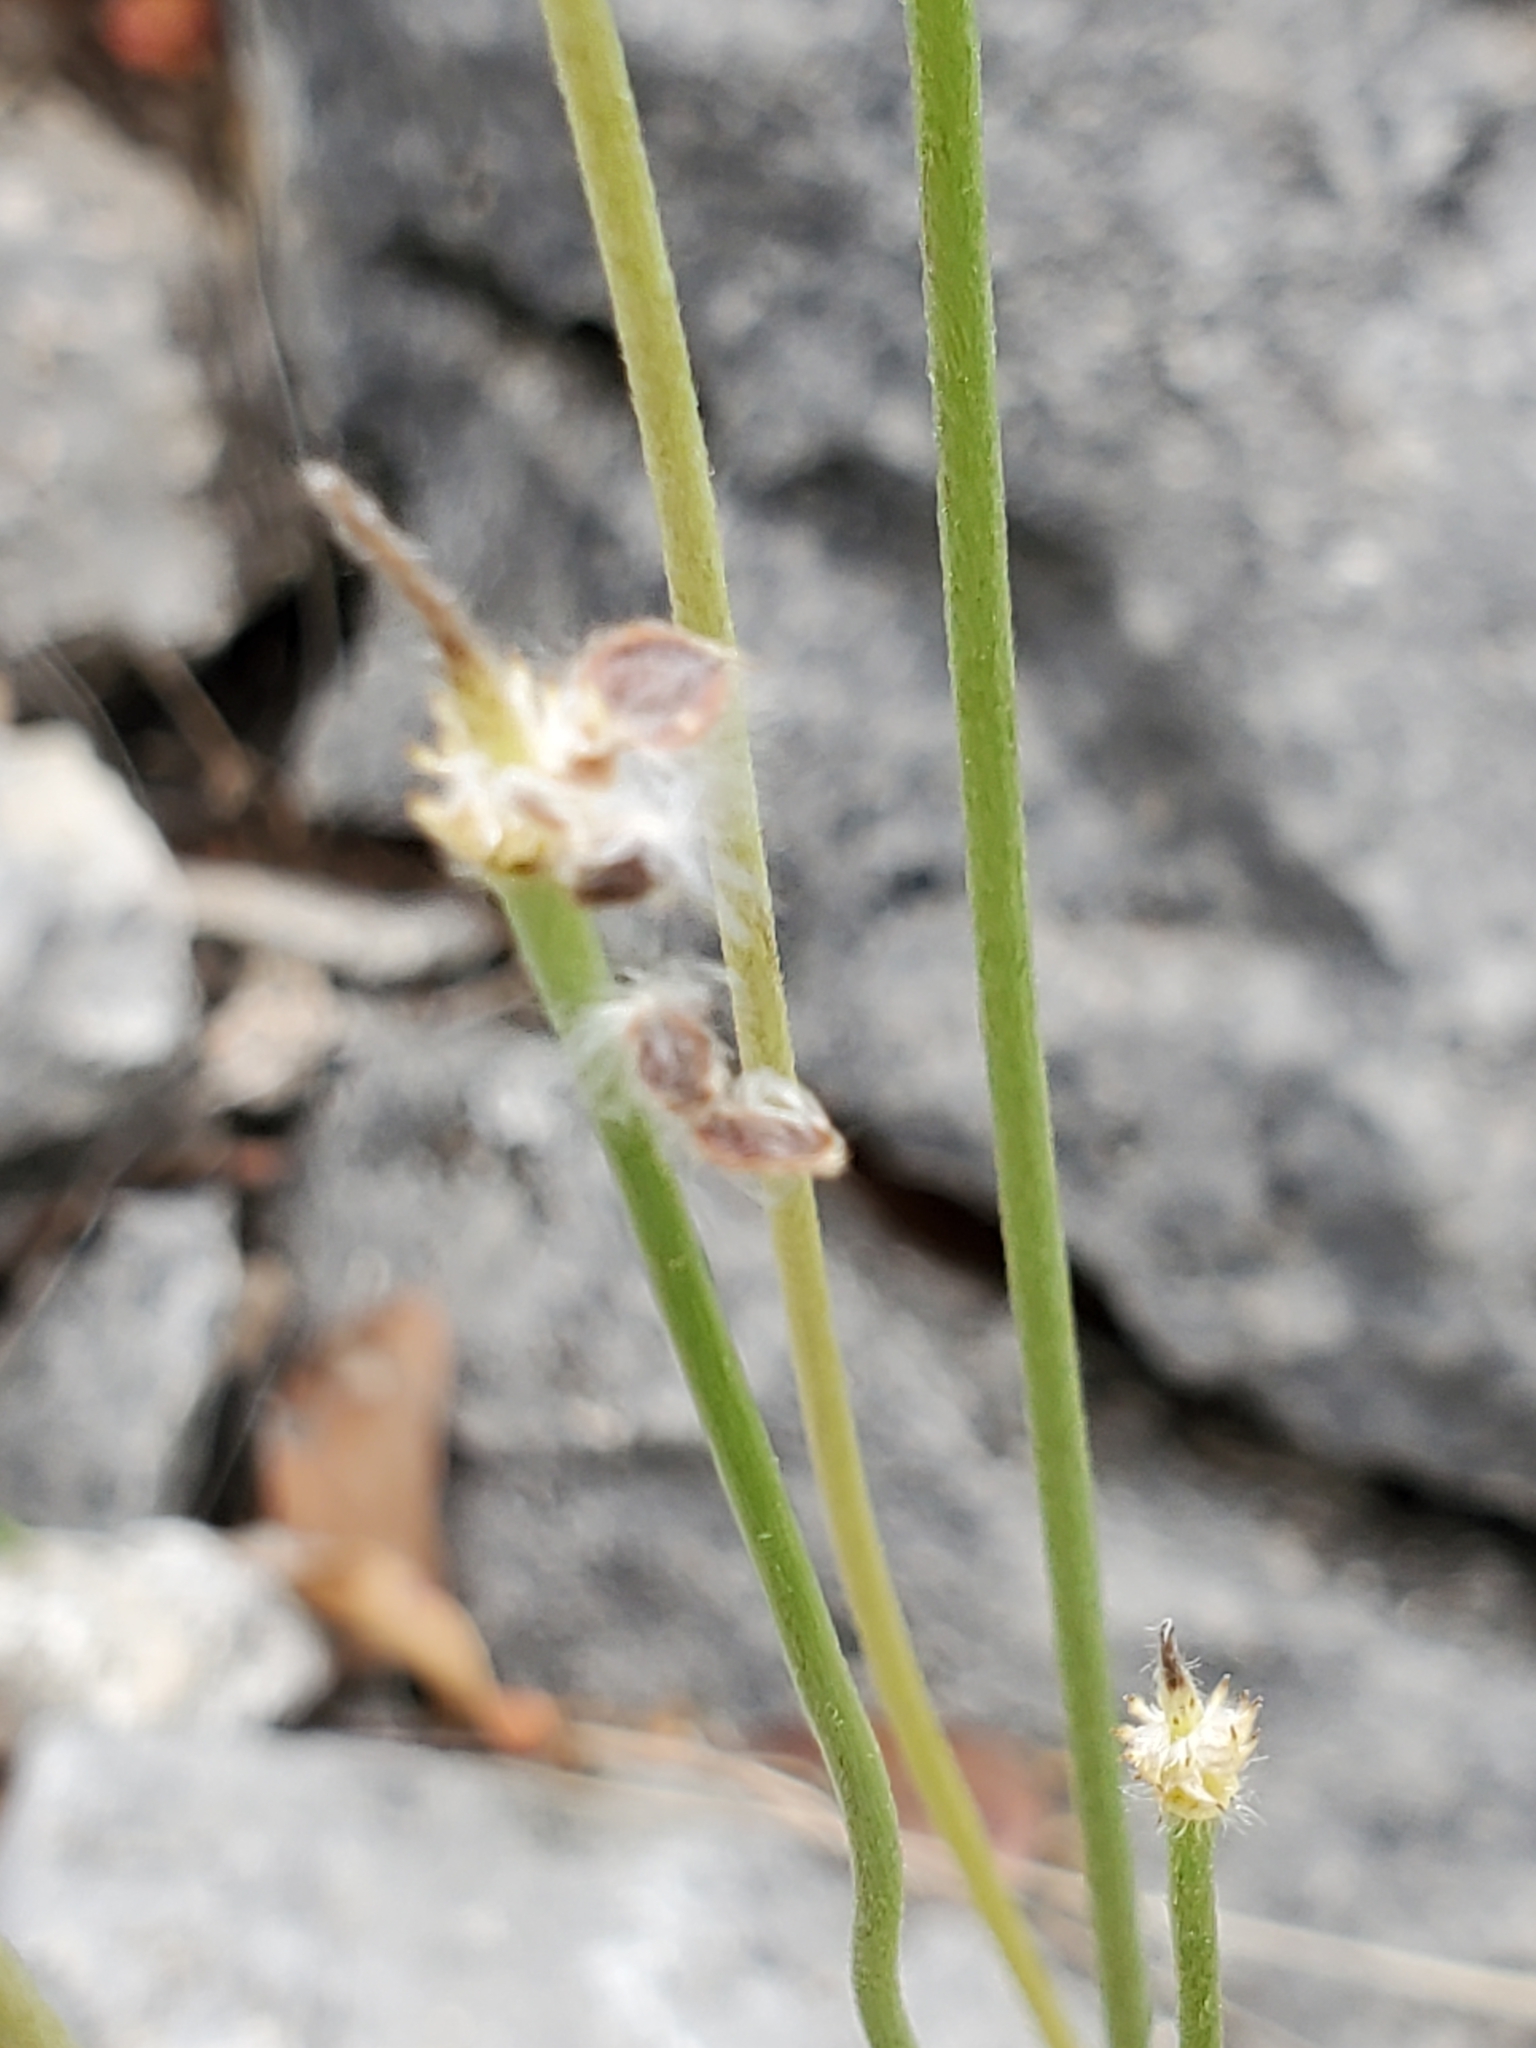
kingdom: Plantae
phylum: Tracheophyta
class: Magnoliopsida
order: Ranunculales
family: Ranunculaceae
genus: Anemone
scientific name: Anemone edwardsiana
